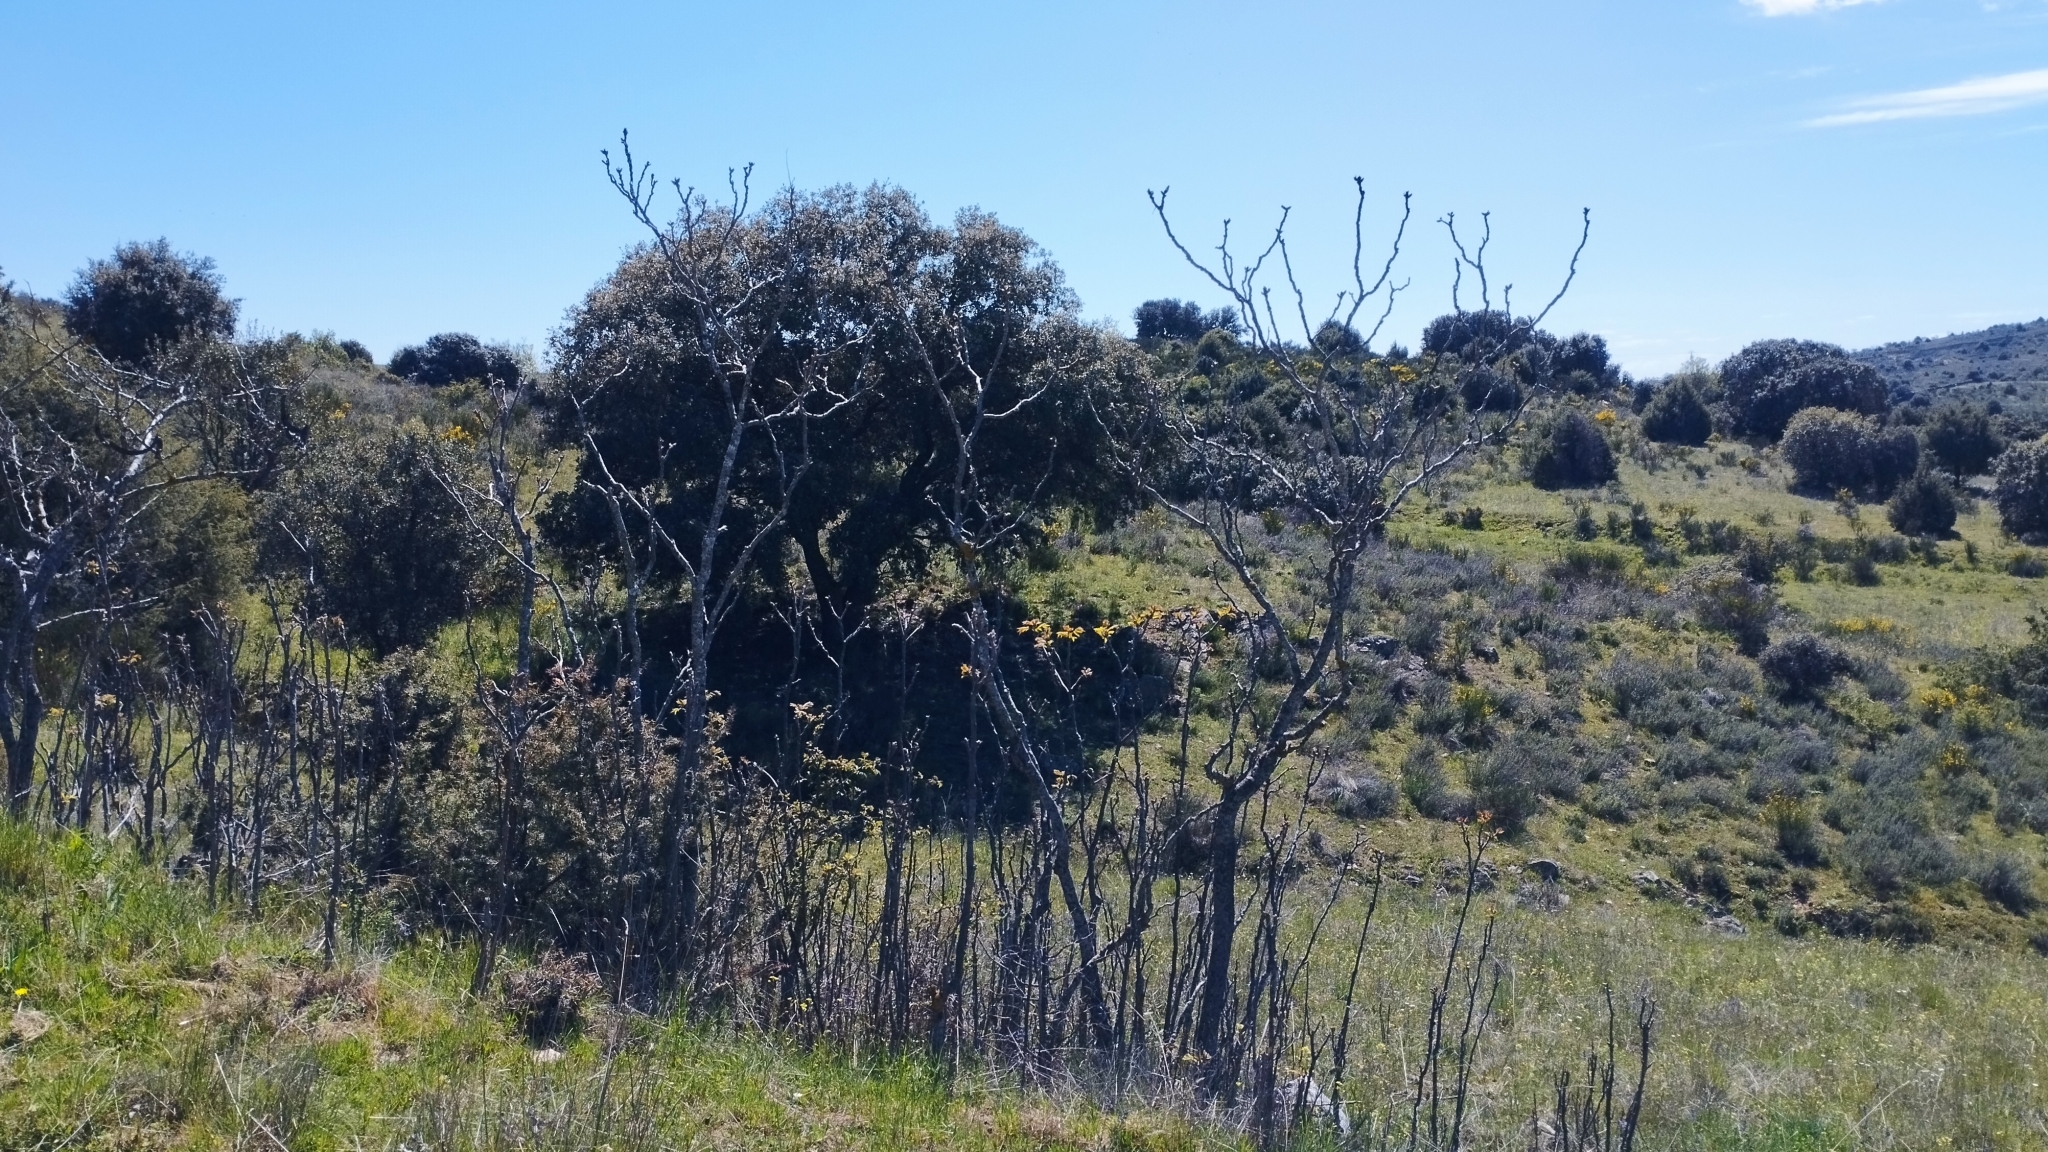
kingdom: Plantae
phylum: Tracheophyta
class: Magnoliopsida
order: Sapindales
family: Simaroubaceae
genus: Ailanthus
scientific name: Ailanthus altissima
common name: Tree-of-heaven
